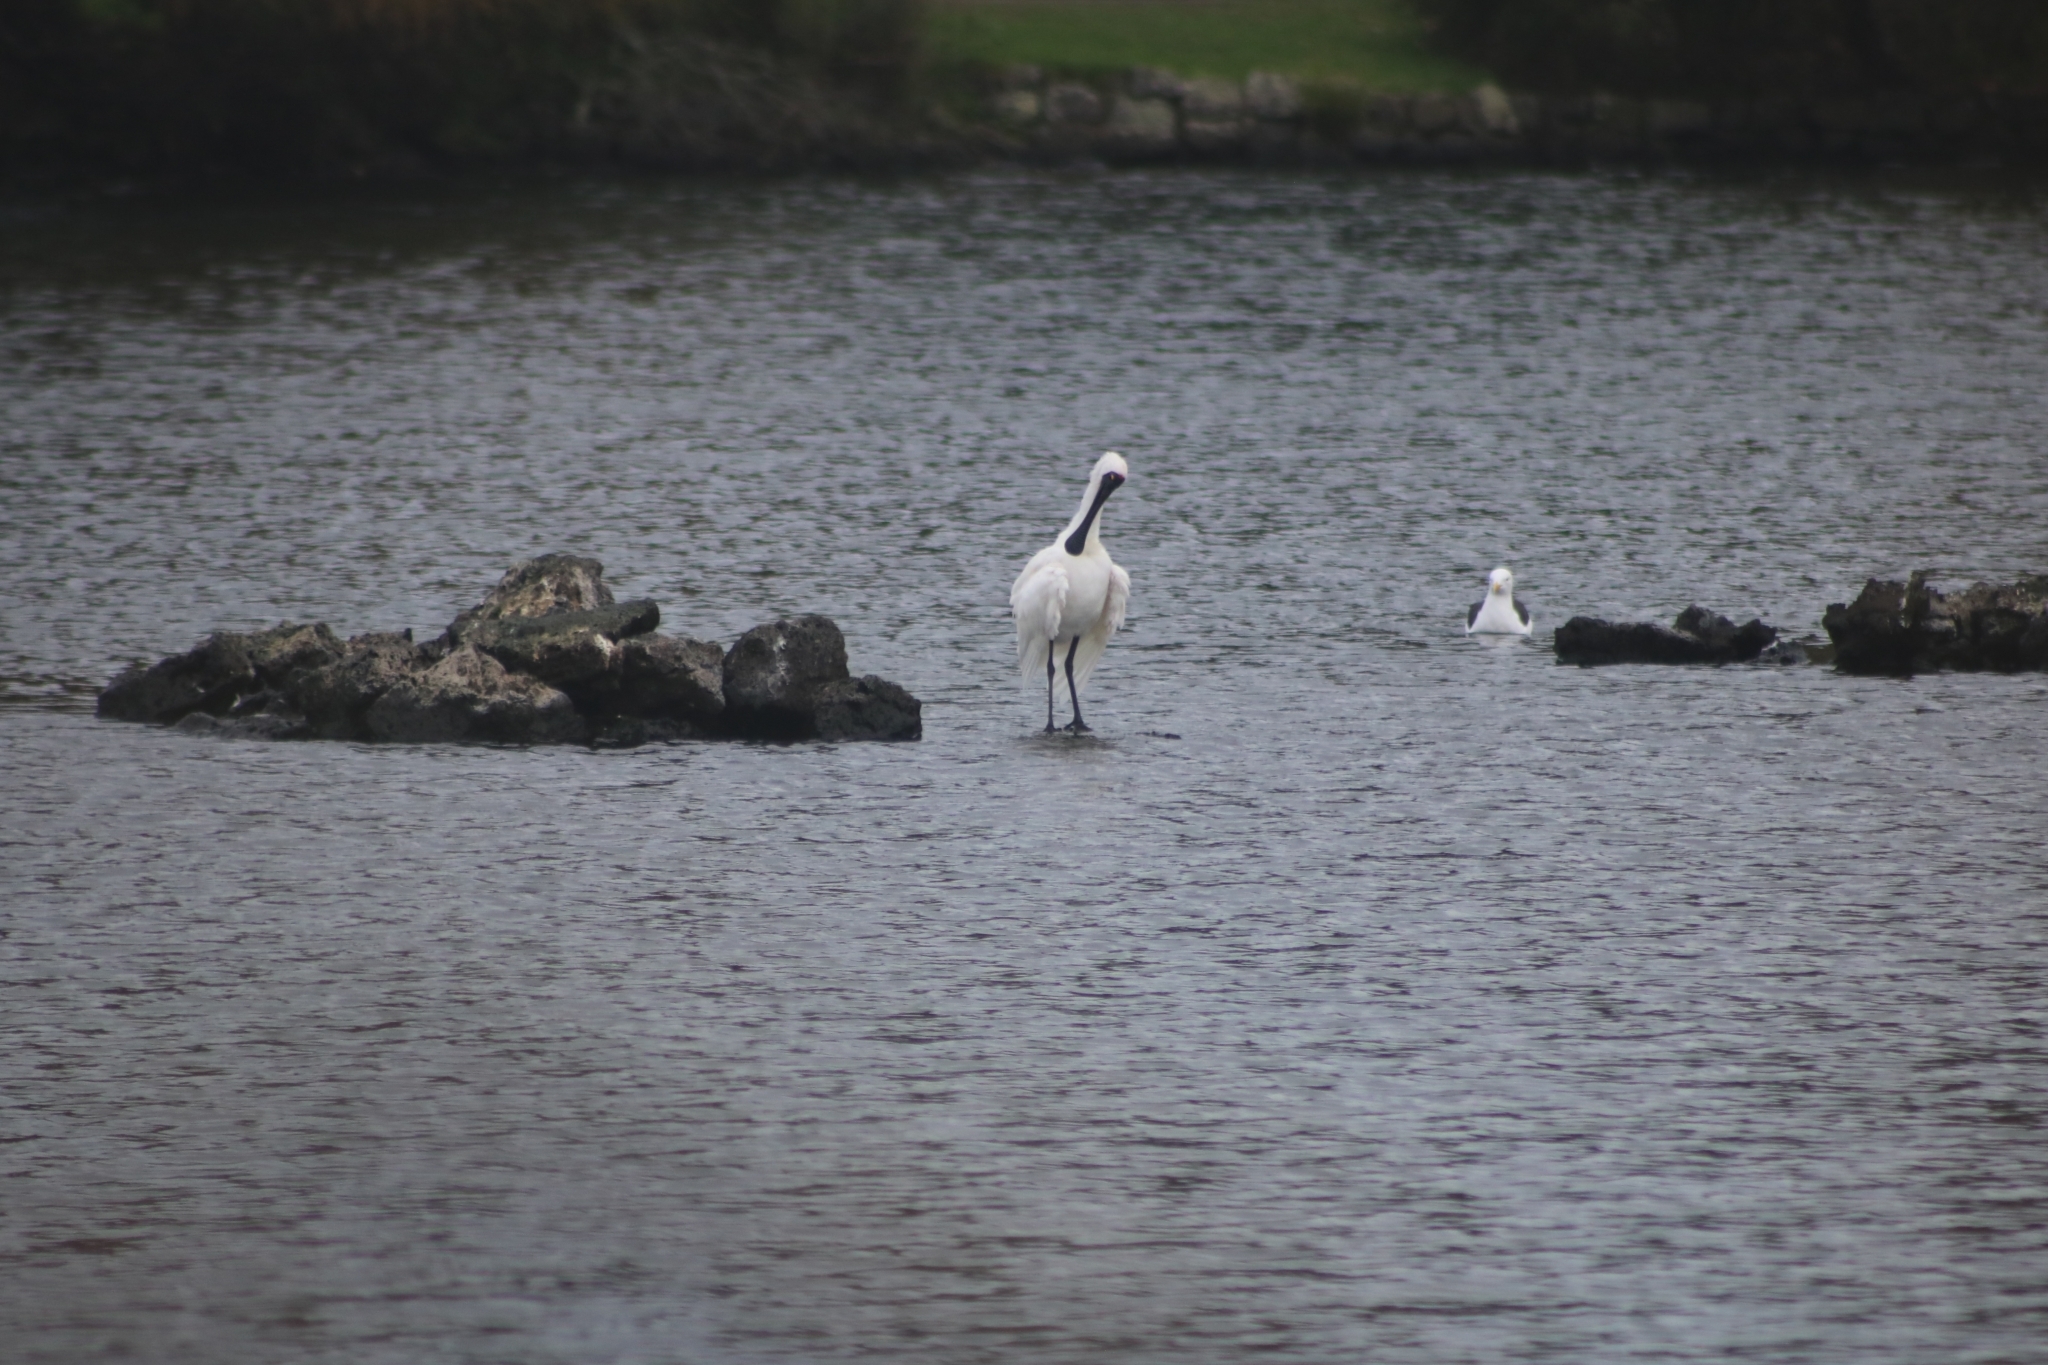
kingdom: Animalia
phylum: Chordata
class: Aves
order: Pelecaniformes
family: Threskiornithidae
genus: Platalea
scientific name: Platalea regia
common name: Royal spoonbill
